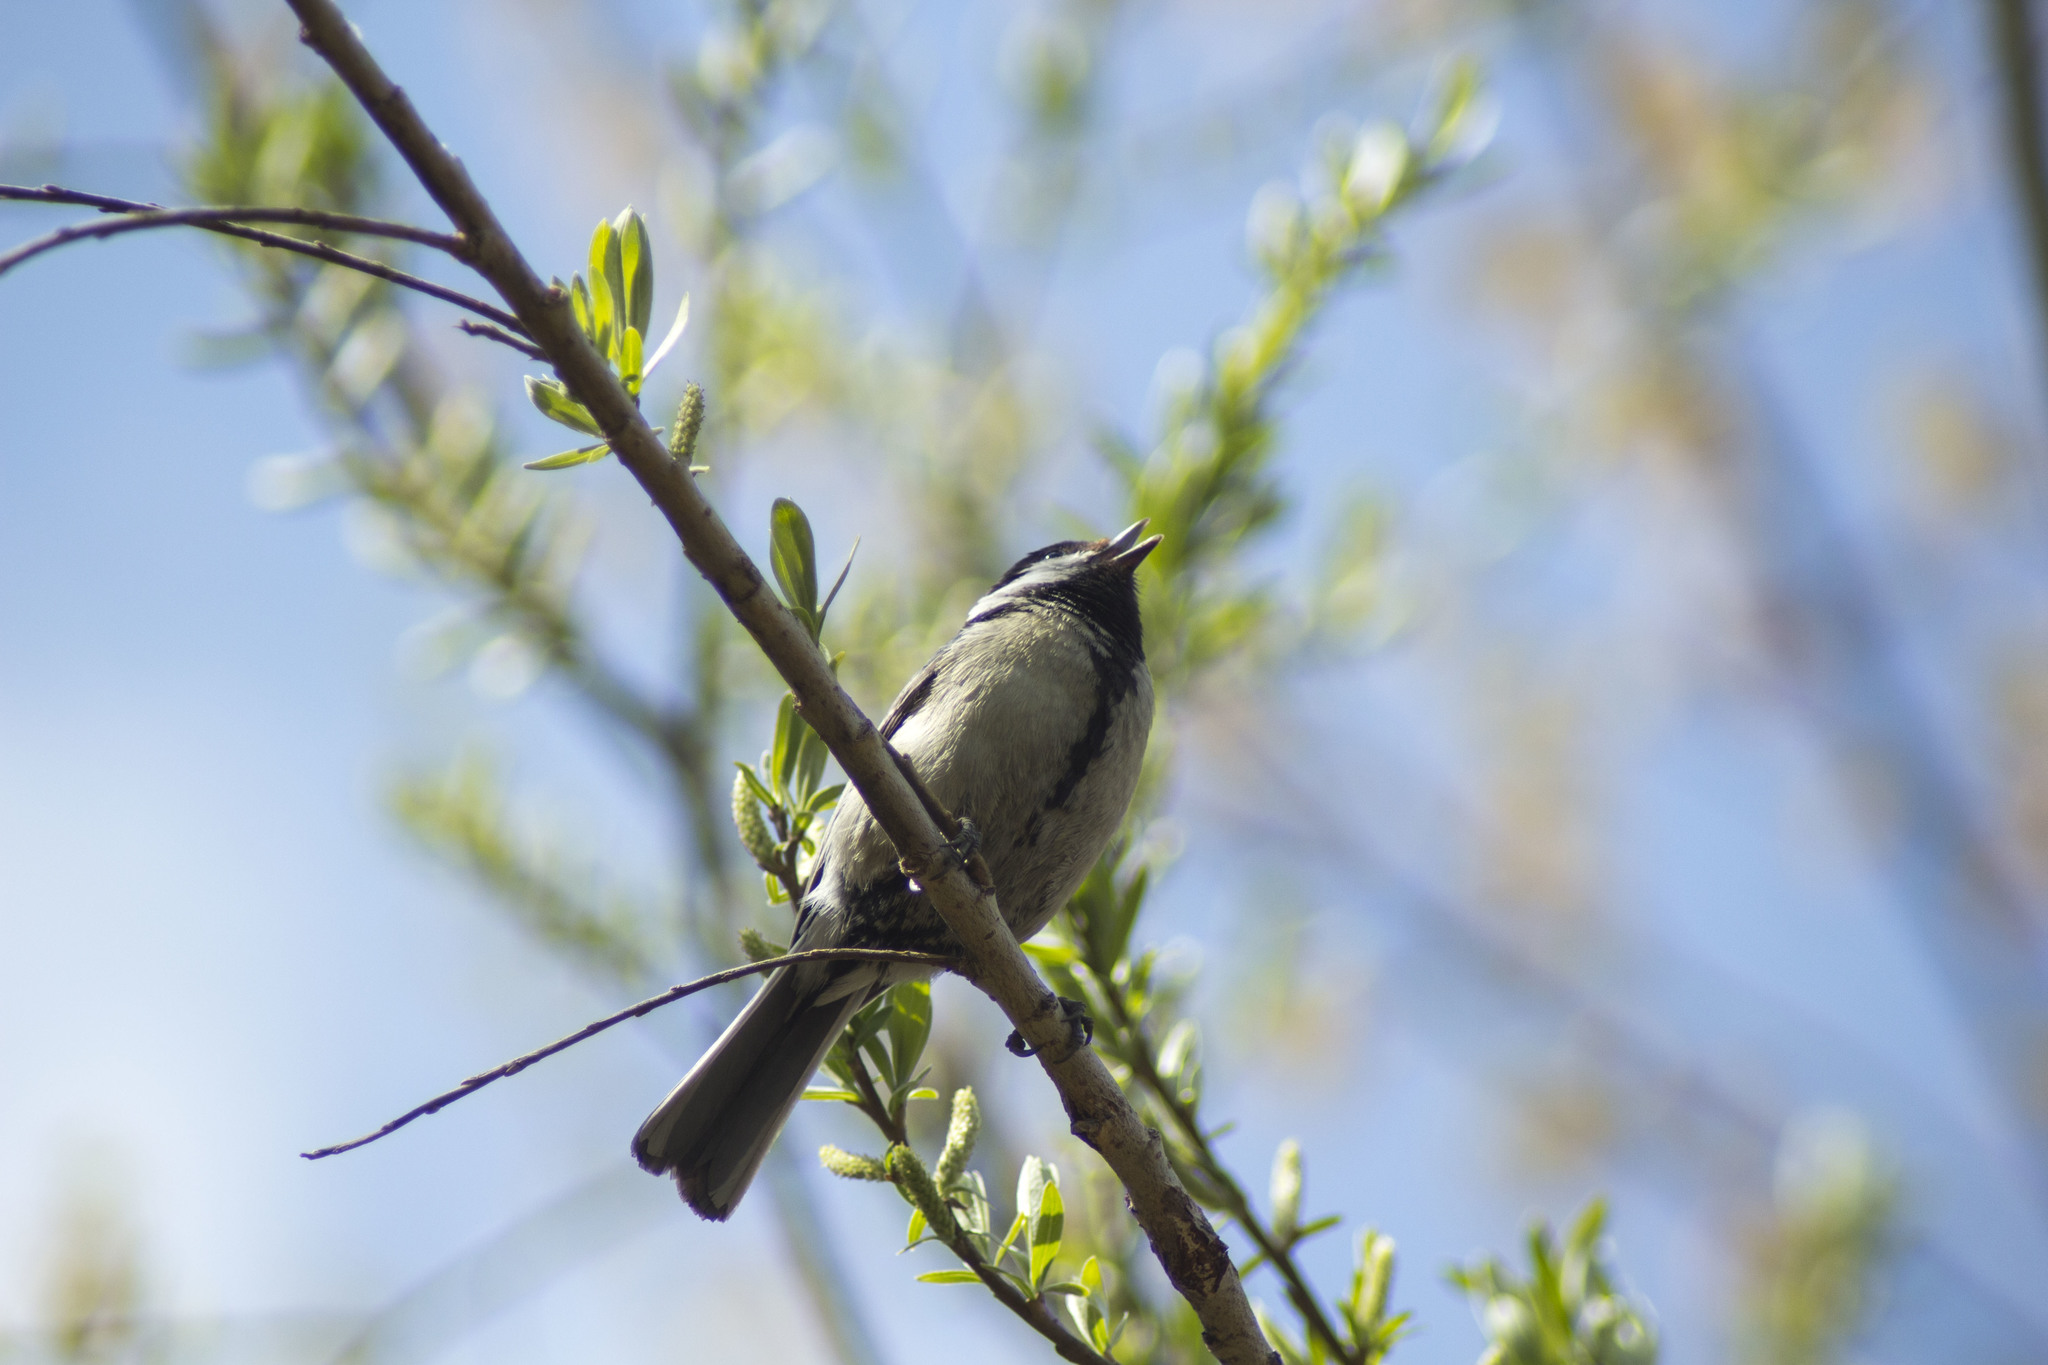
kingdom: Animalia
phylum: Chordata
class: Aves
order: Passeriformes
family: Paridae
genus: Parus
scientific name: Parus major
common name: Great tit
